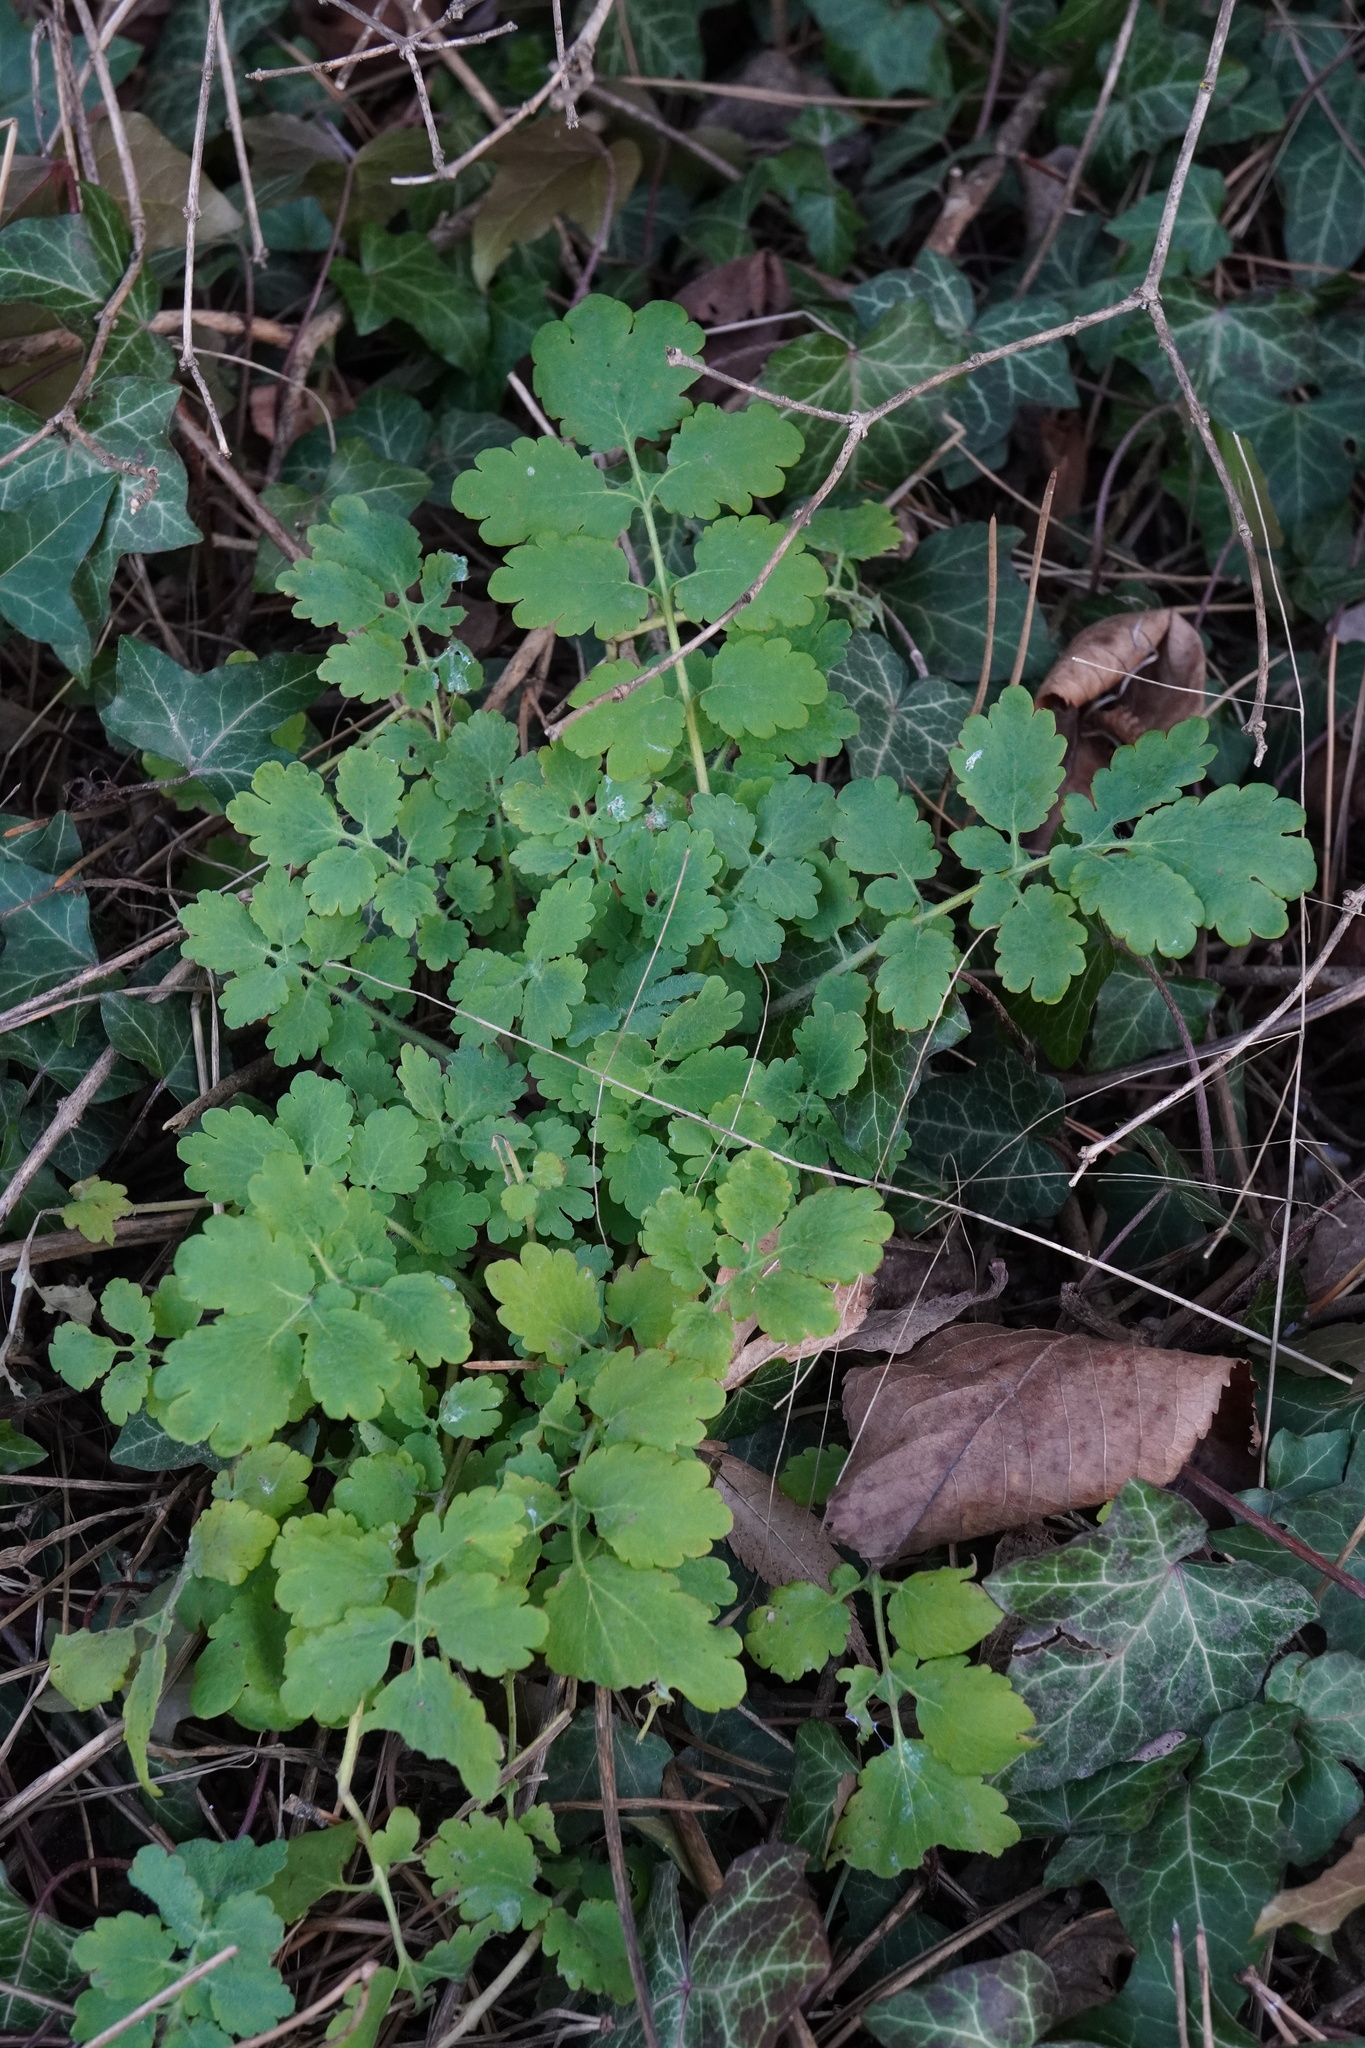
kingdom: Plantae
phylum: Tracheophyta
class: Magnoliopsida
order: Ranunculales
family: Papaveraceae
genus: Chelidonium
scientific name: Chelidonium majus
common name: Greater celandine
